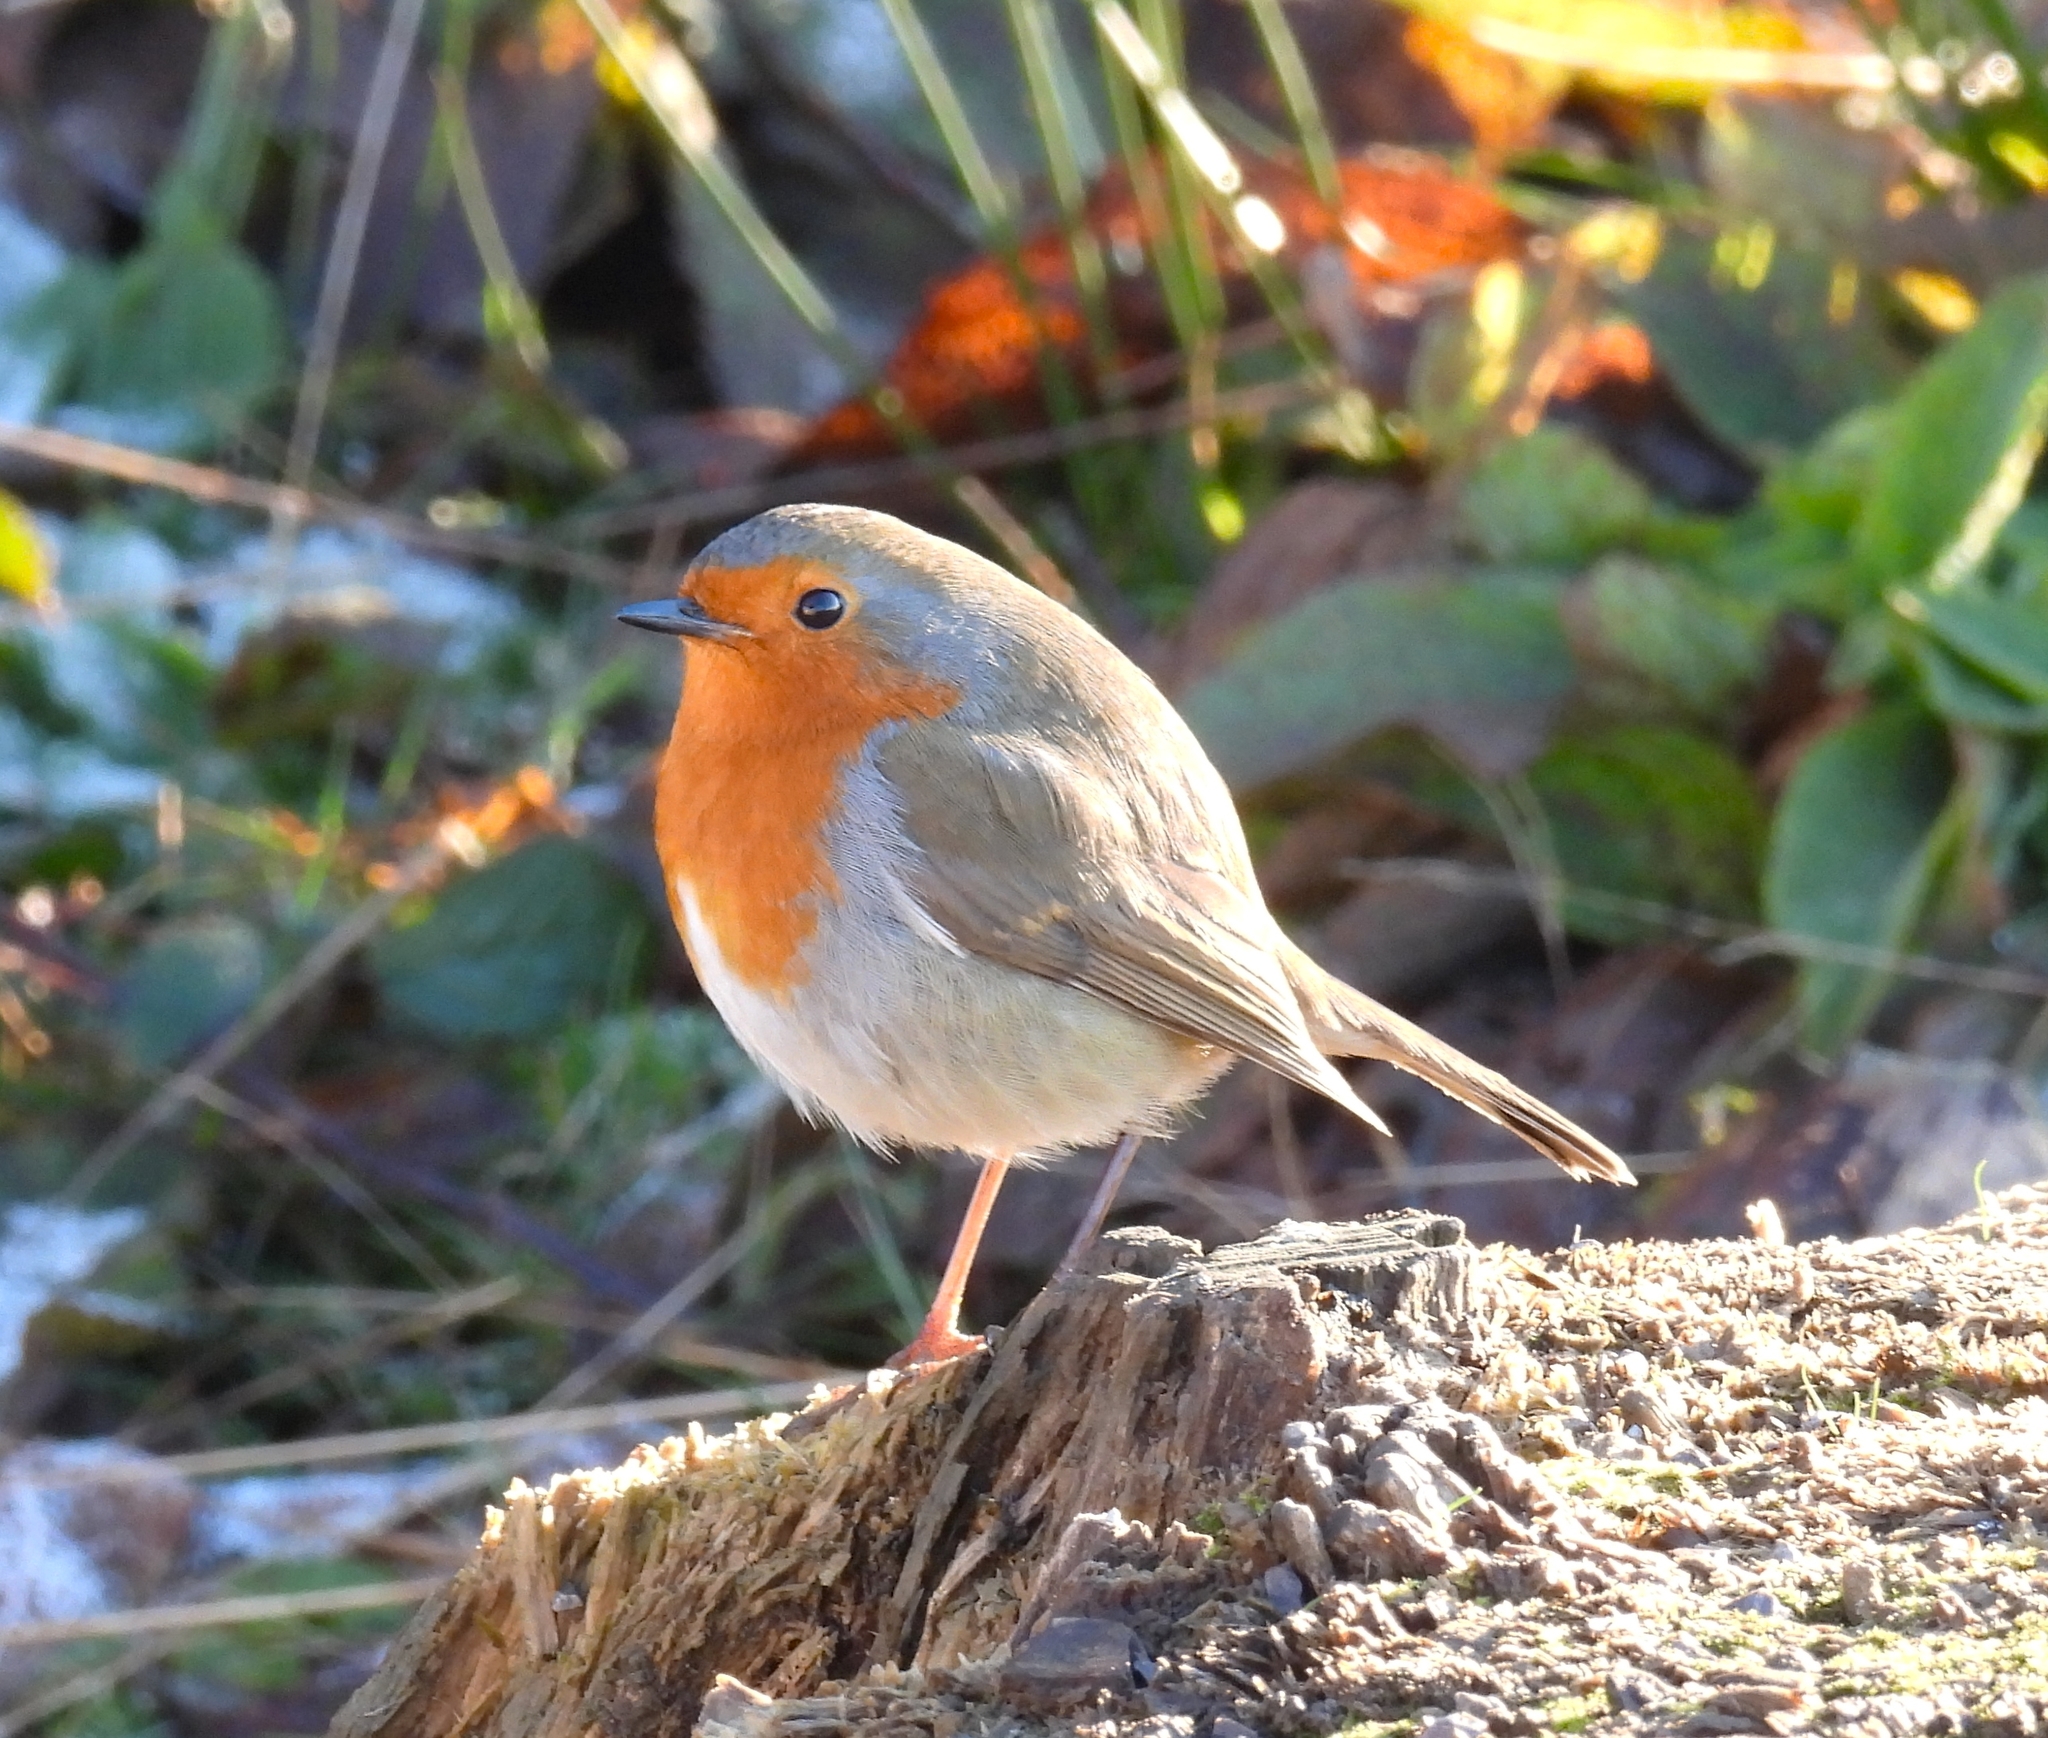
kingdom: Animalia
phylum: Chordata
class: Aves
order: Passeriformes
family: Muscicapidae
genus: Erithacus
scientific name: Erithacus rubecula
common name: European robin
